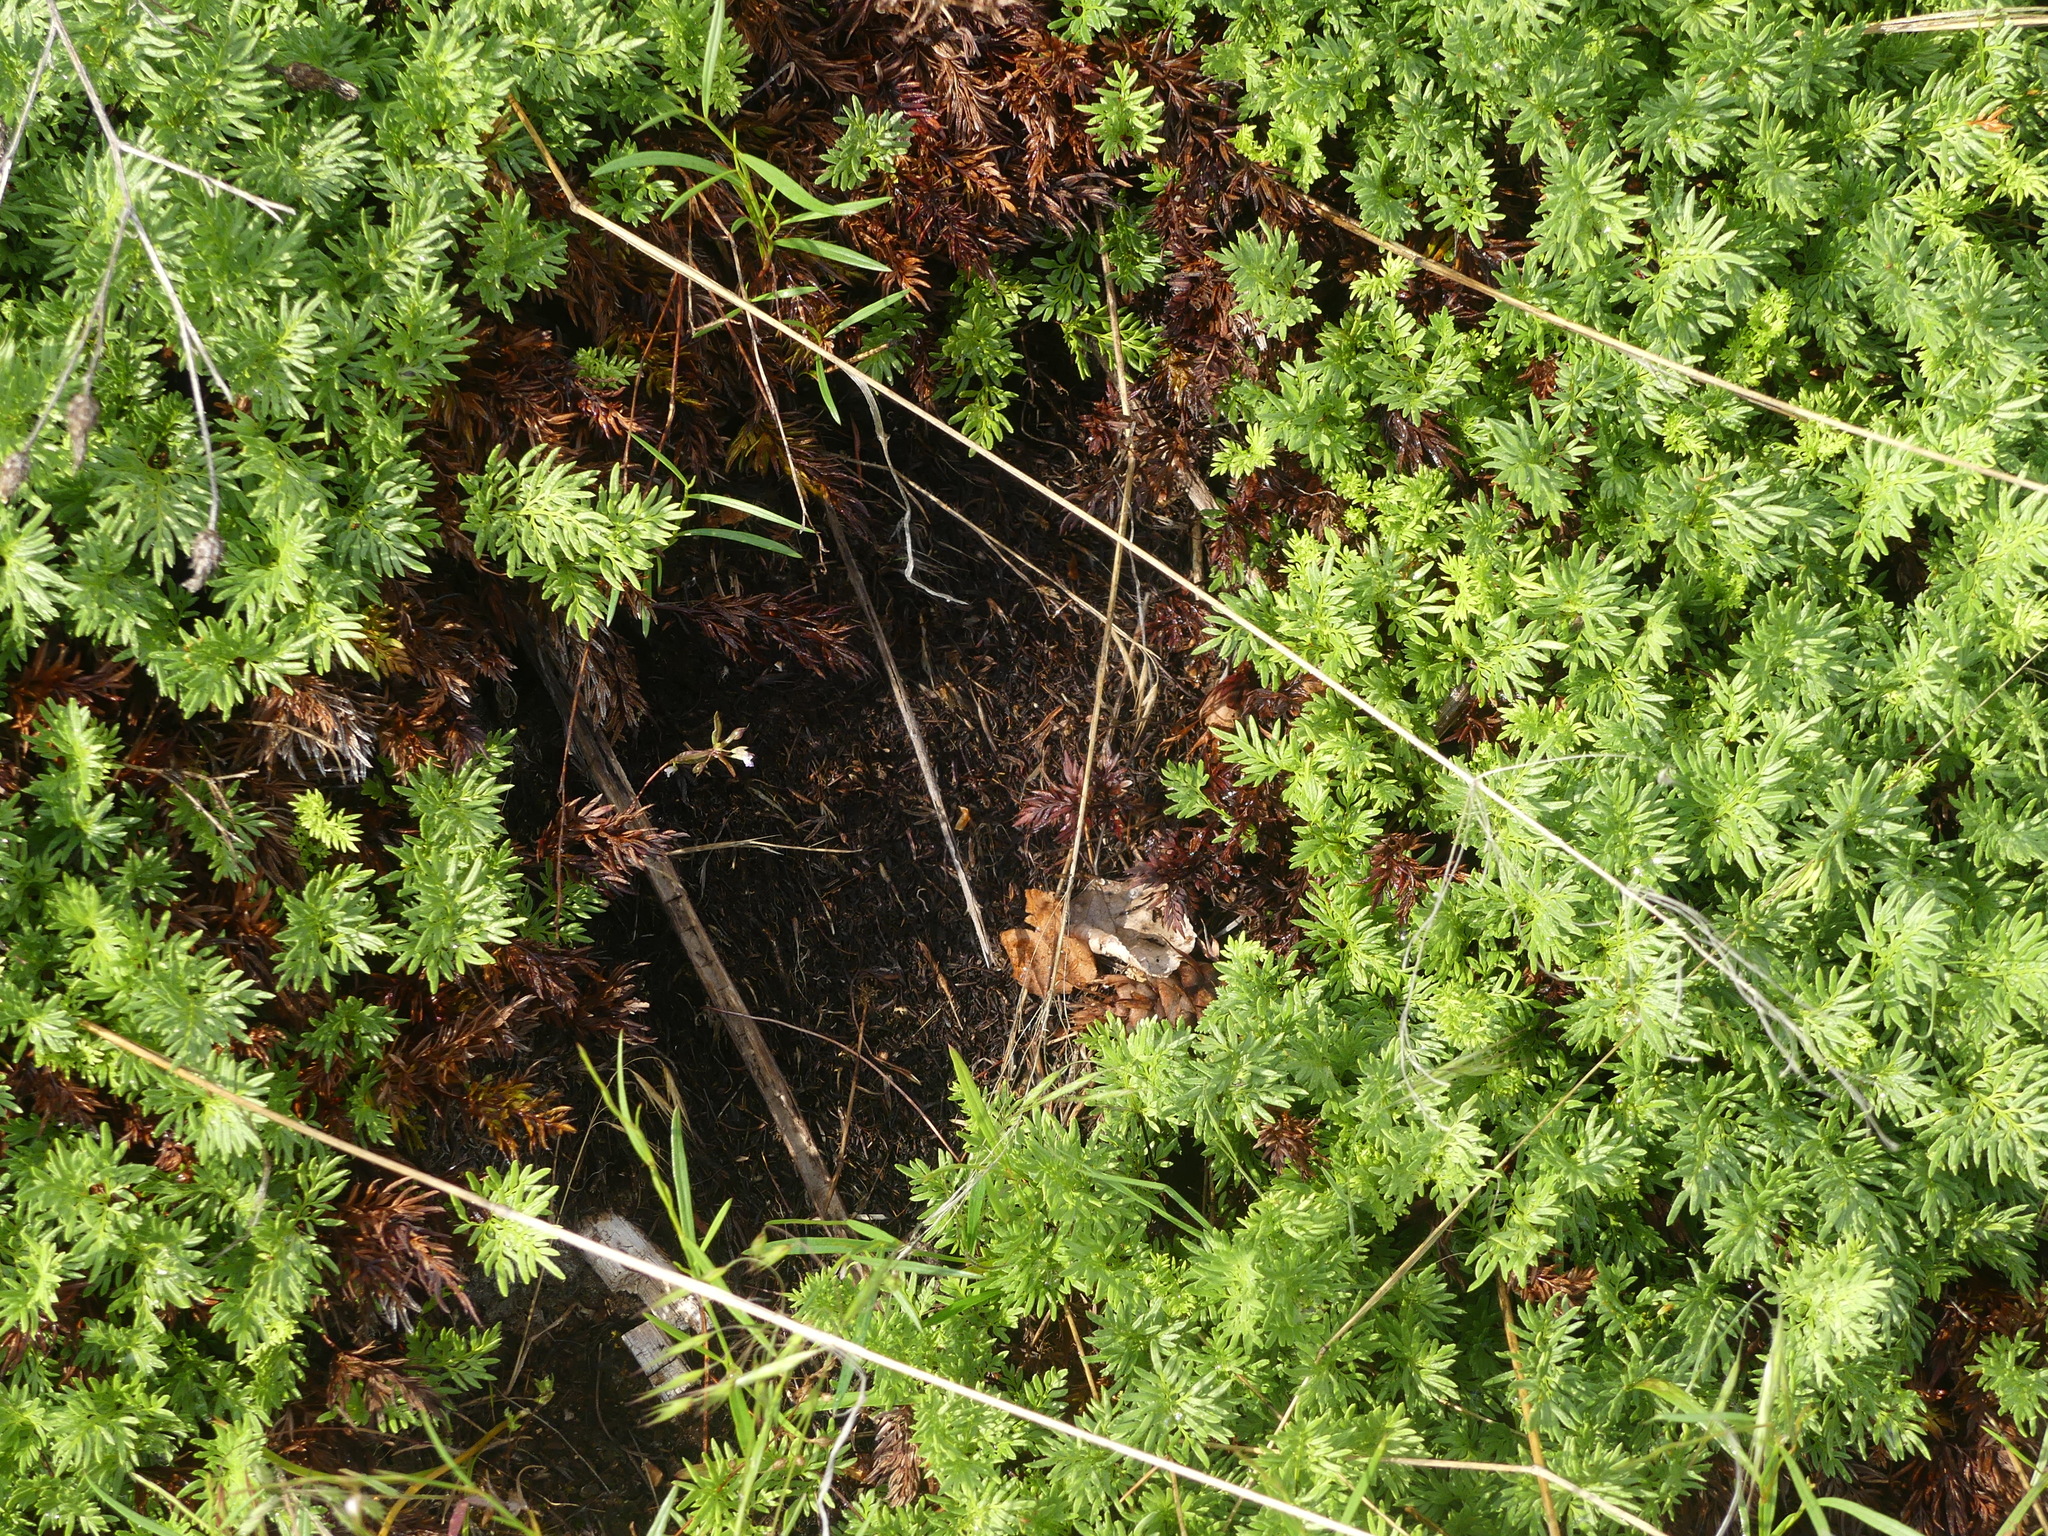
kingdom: Plantae
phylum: Tracheophyta
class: Polypodiopsida
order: Polypodiales
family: Pteridaceae
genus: Aspidotis
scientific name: Aspidotis densa
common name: Indian's dream
